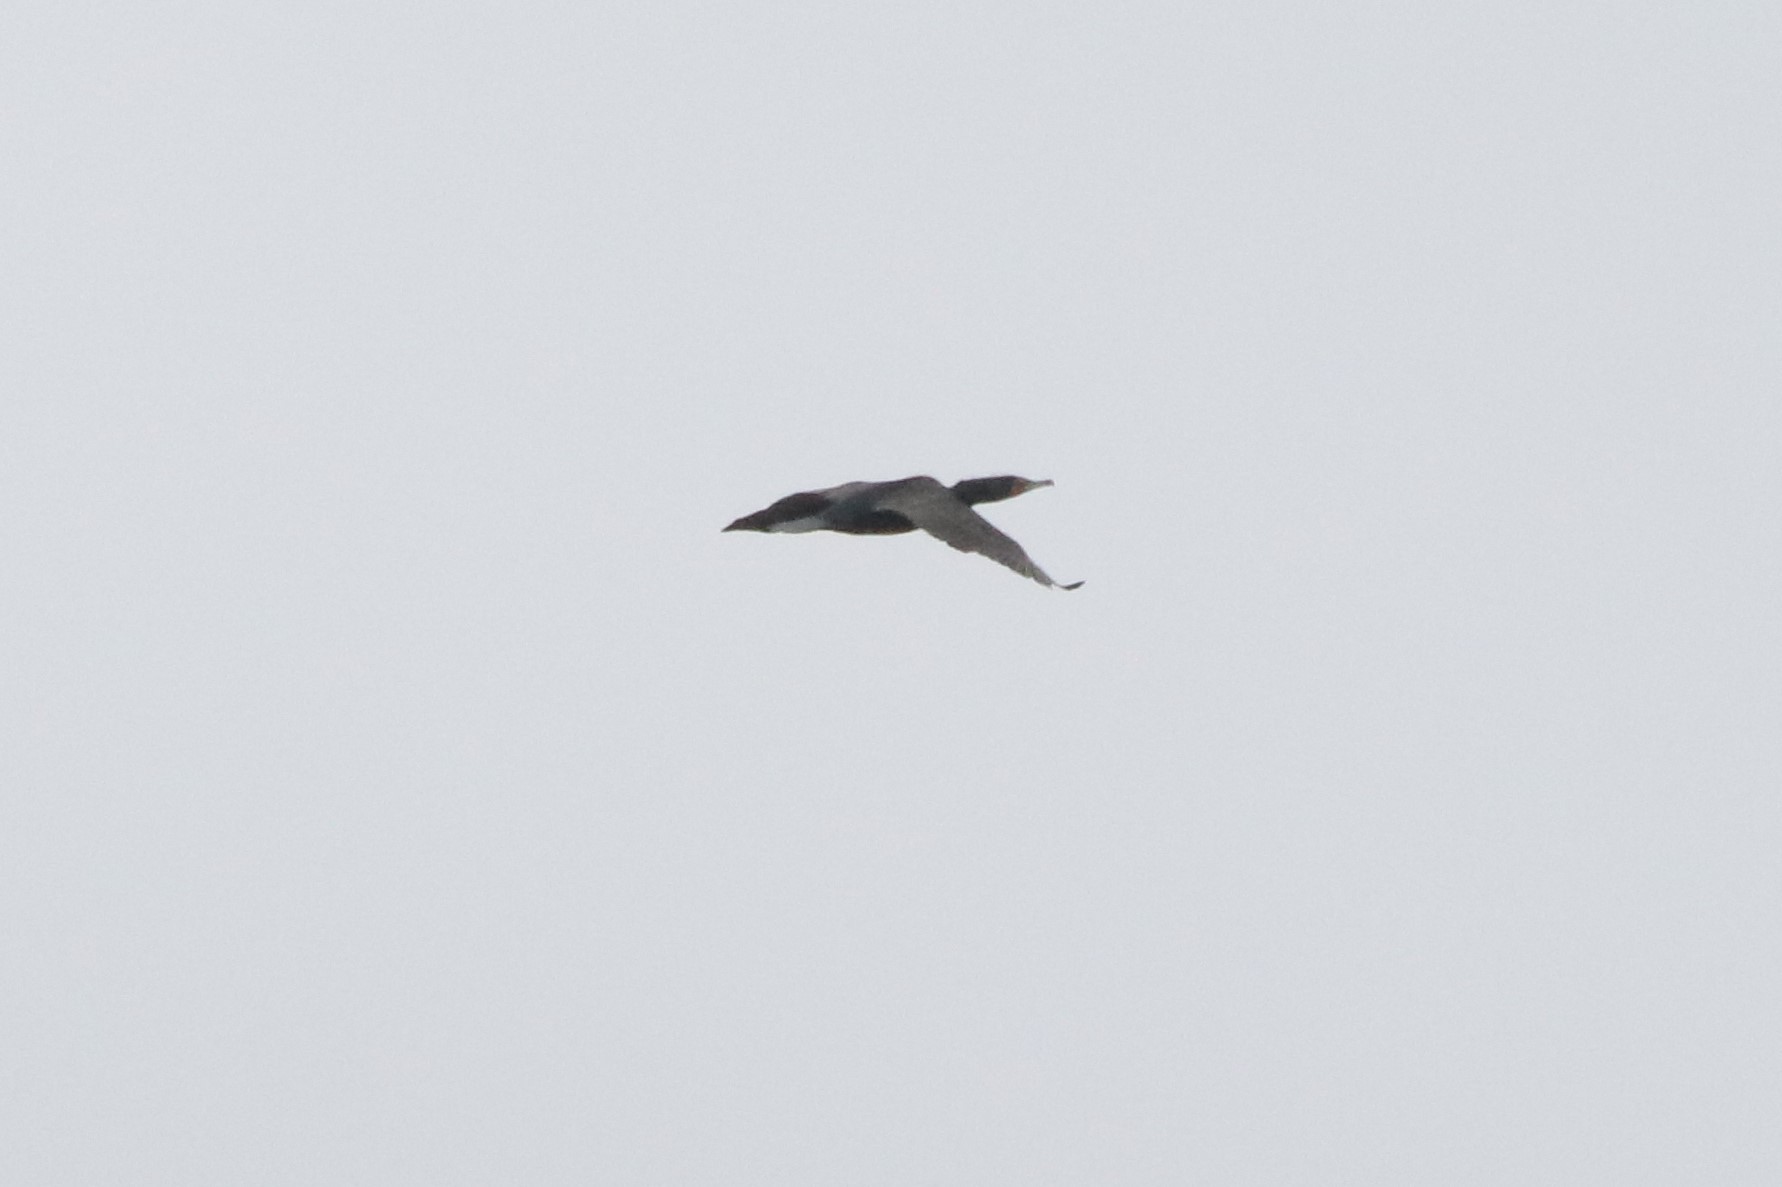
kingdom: Animalia
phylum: Chordata
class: Aves
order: Suliformes
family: Phalacrocoracidae
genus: Phalacrocorax
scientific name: Phalacrocorax auritus
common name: Double-crested cormorant
